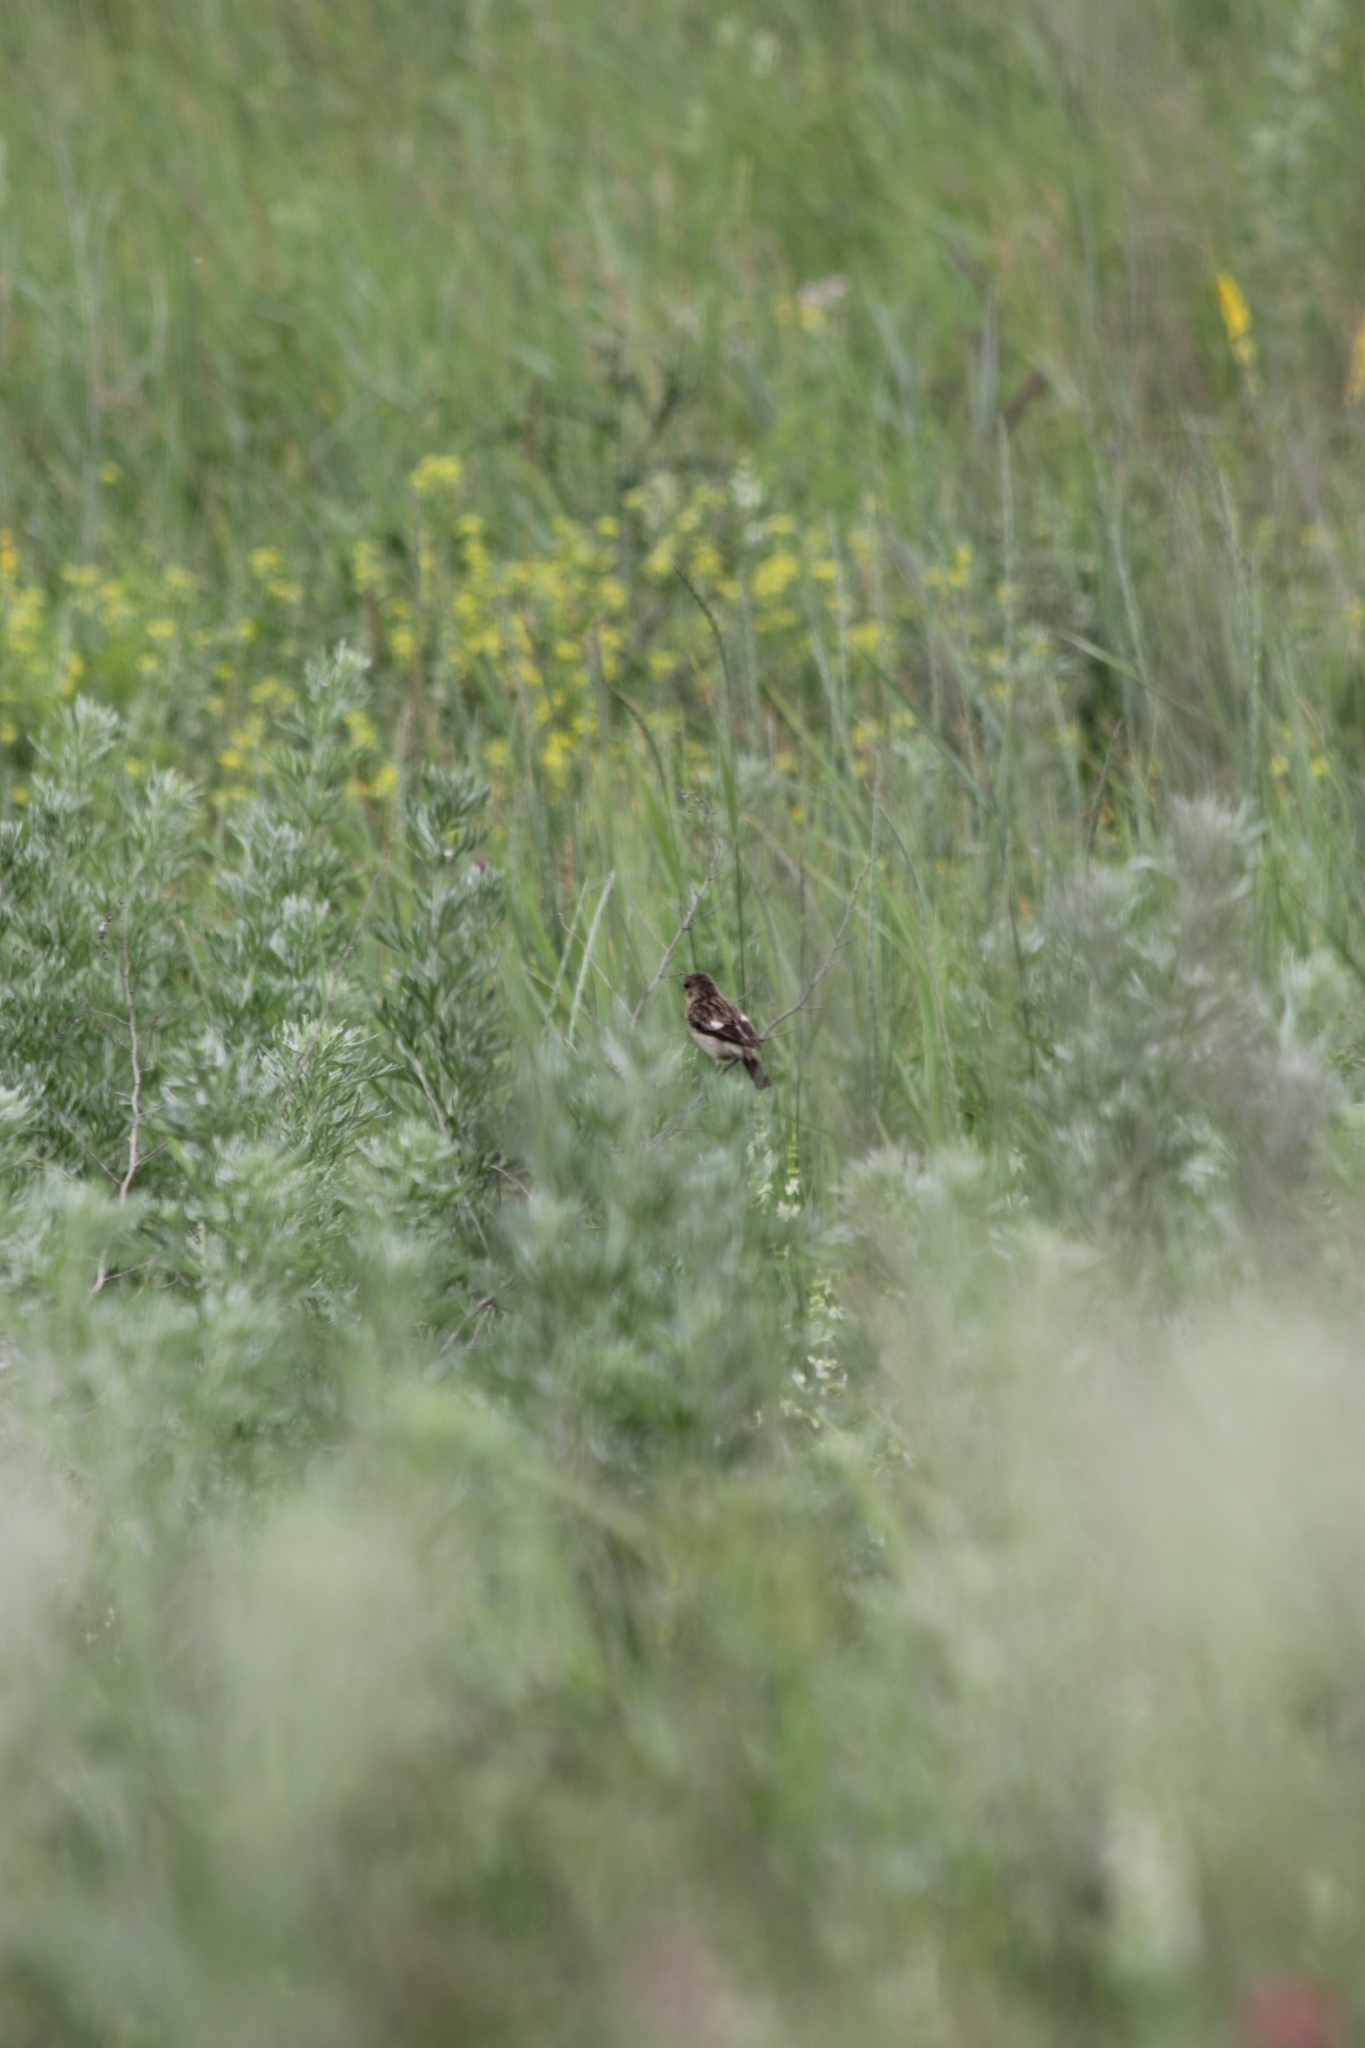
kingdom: Animalia
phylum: Chordata
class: Aves
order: Passeriformes
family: Muscicapidae
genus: Saxicola
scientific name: Saxicola maurus
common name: Siberian stonechat
